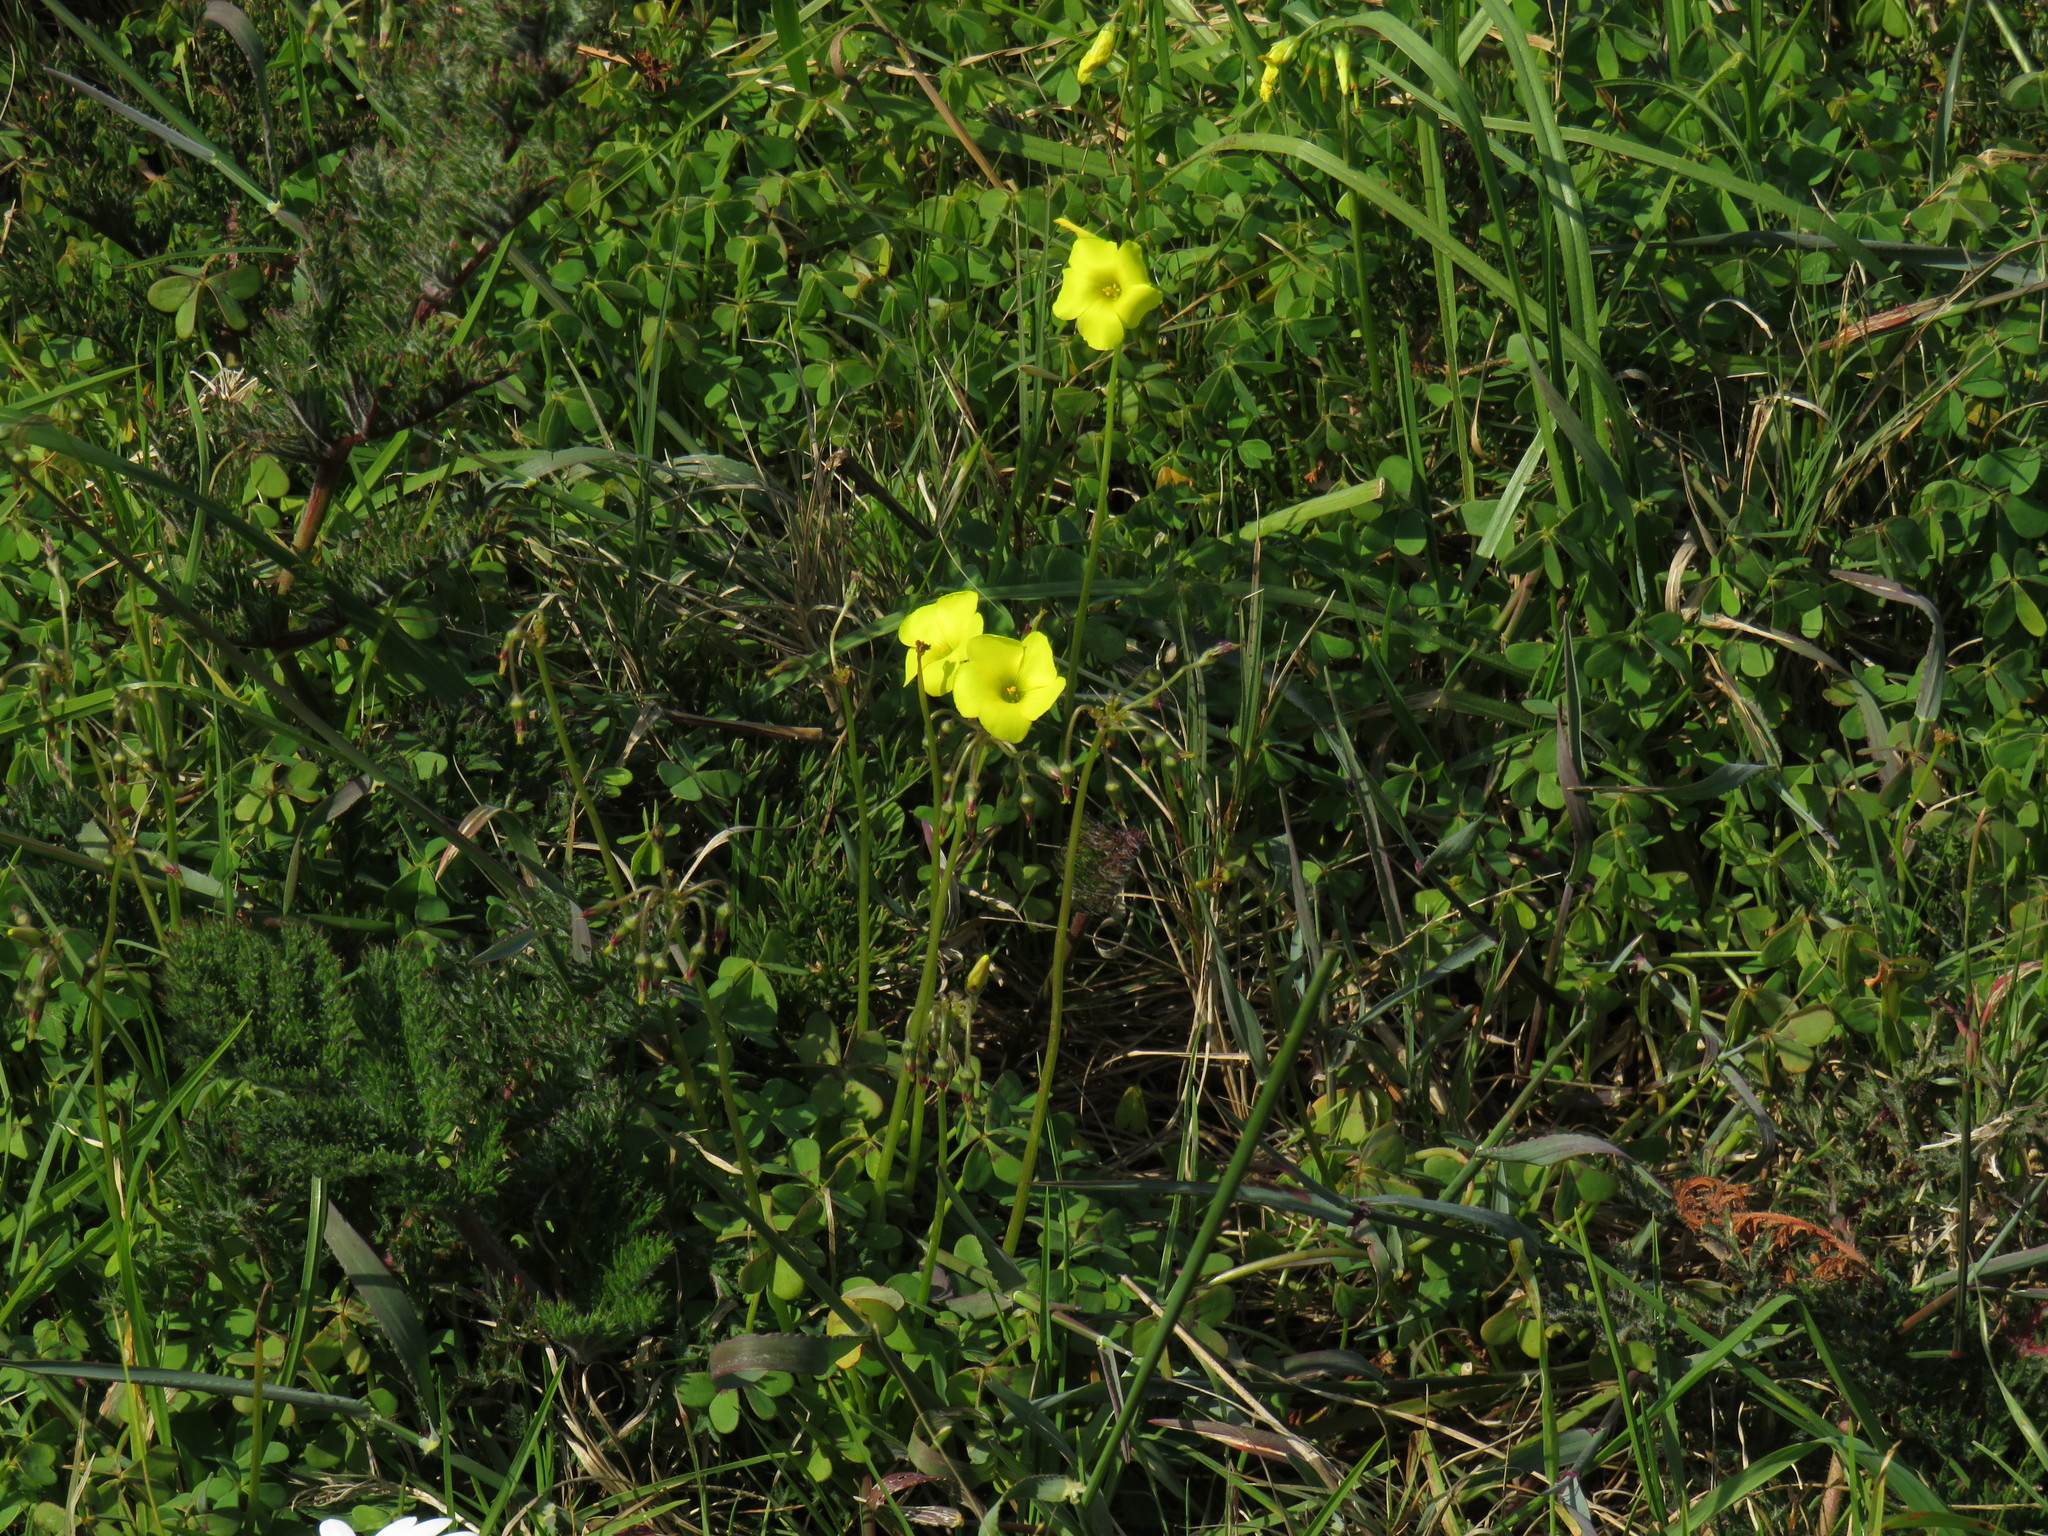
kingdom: Plantae
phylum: Tracheophyta
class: Magnoliopsida
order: Oxalidales
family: Oxalidaceae
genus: Oxalis
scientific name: Oxalis pes-caprae
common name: Bermuda-buttercup
